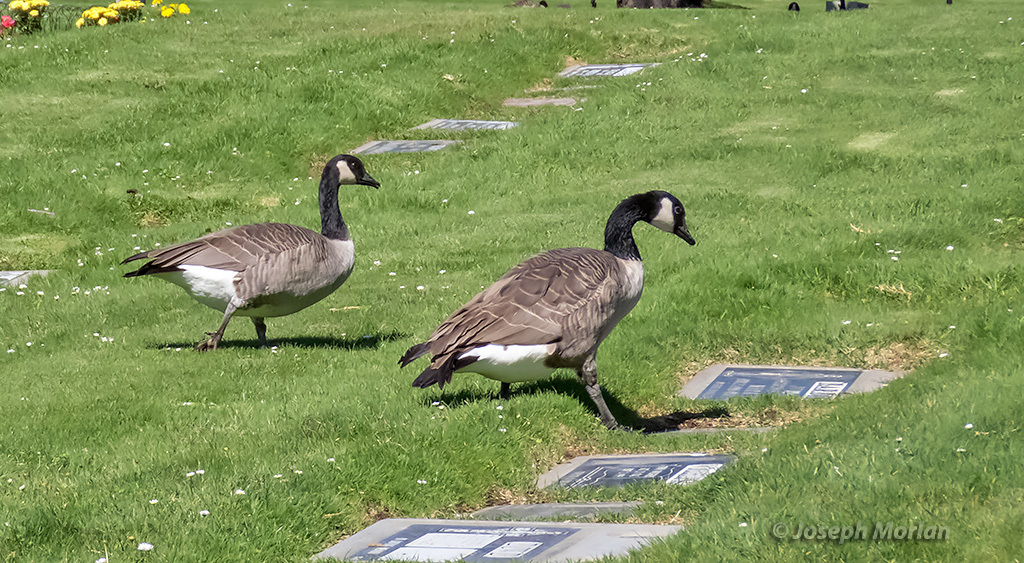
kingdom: Animalia
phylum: Chordata
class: Aves
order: Anseriformes
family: Anatidae
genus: Branta
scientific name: Branta canadensis
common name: Canada goose
